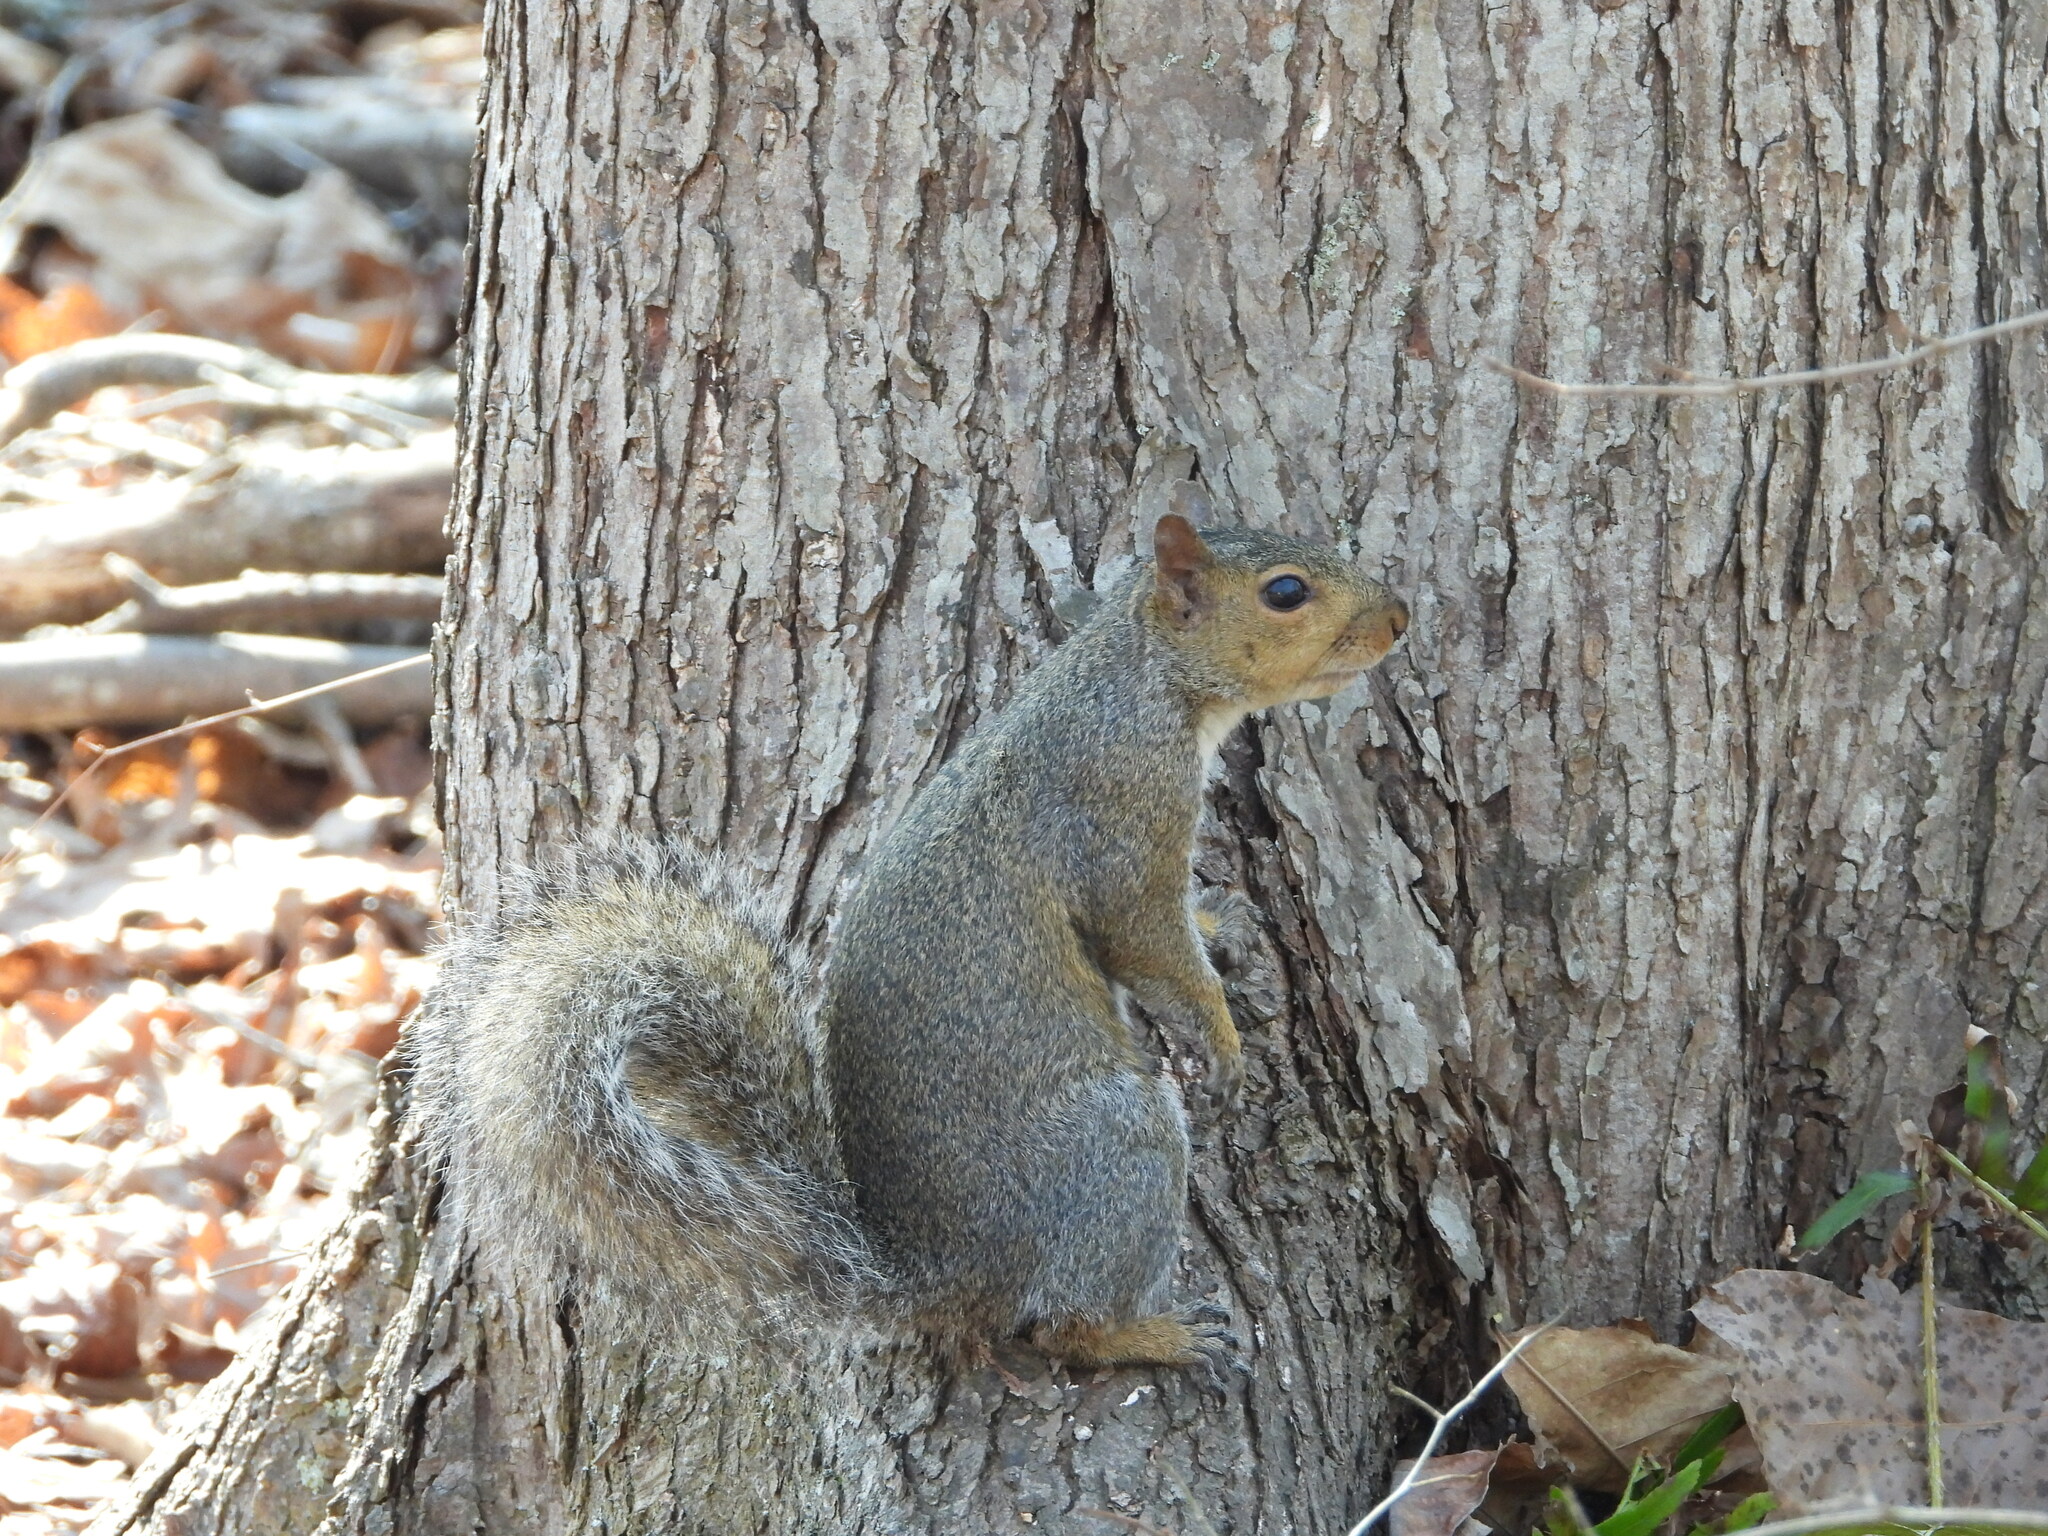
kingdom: Animalia
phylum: Chordata
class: Mammalia
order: Rodentia
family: Sciuridae
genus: Sciurus
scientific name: Sciurus carolinensis
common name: Eastern gray squirrel
